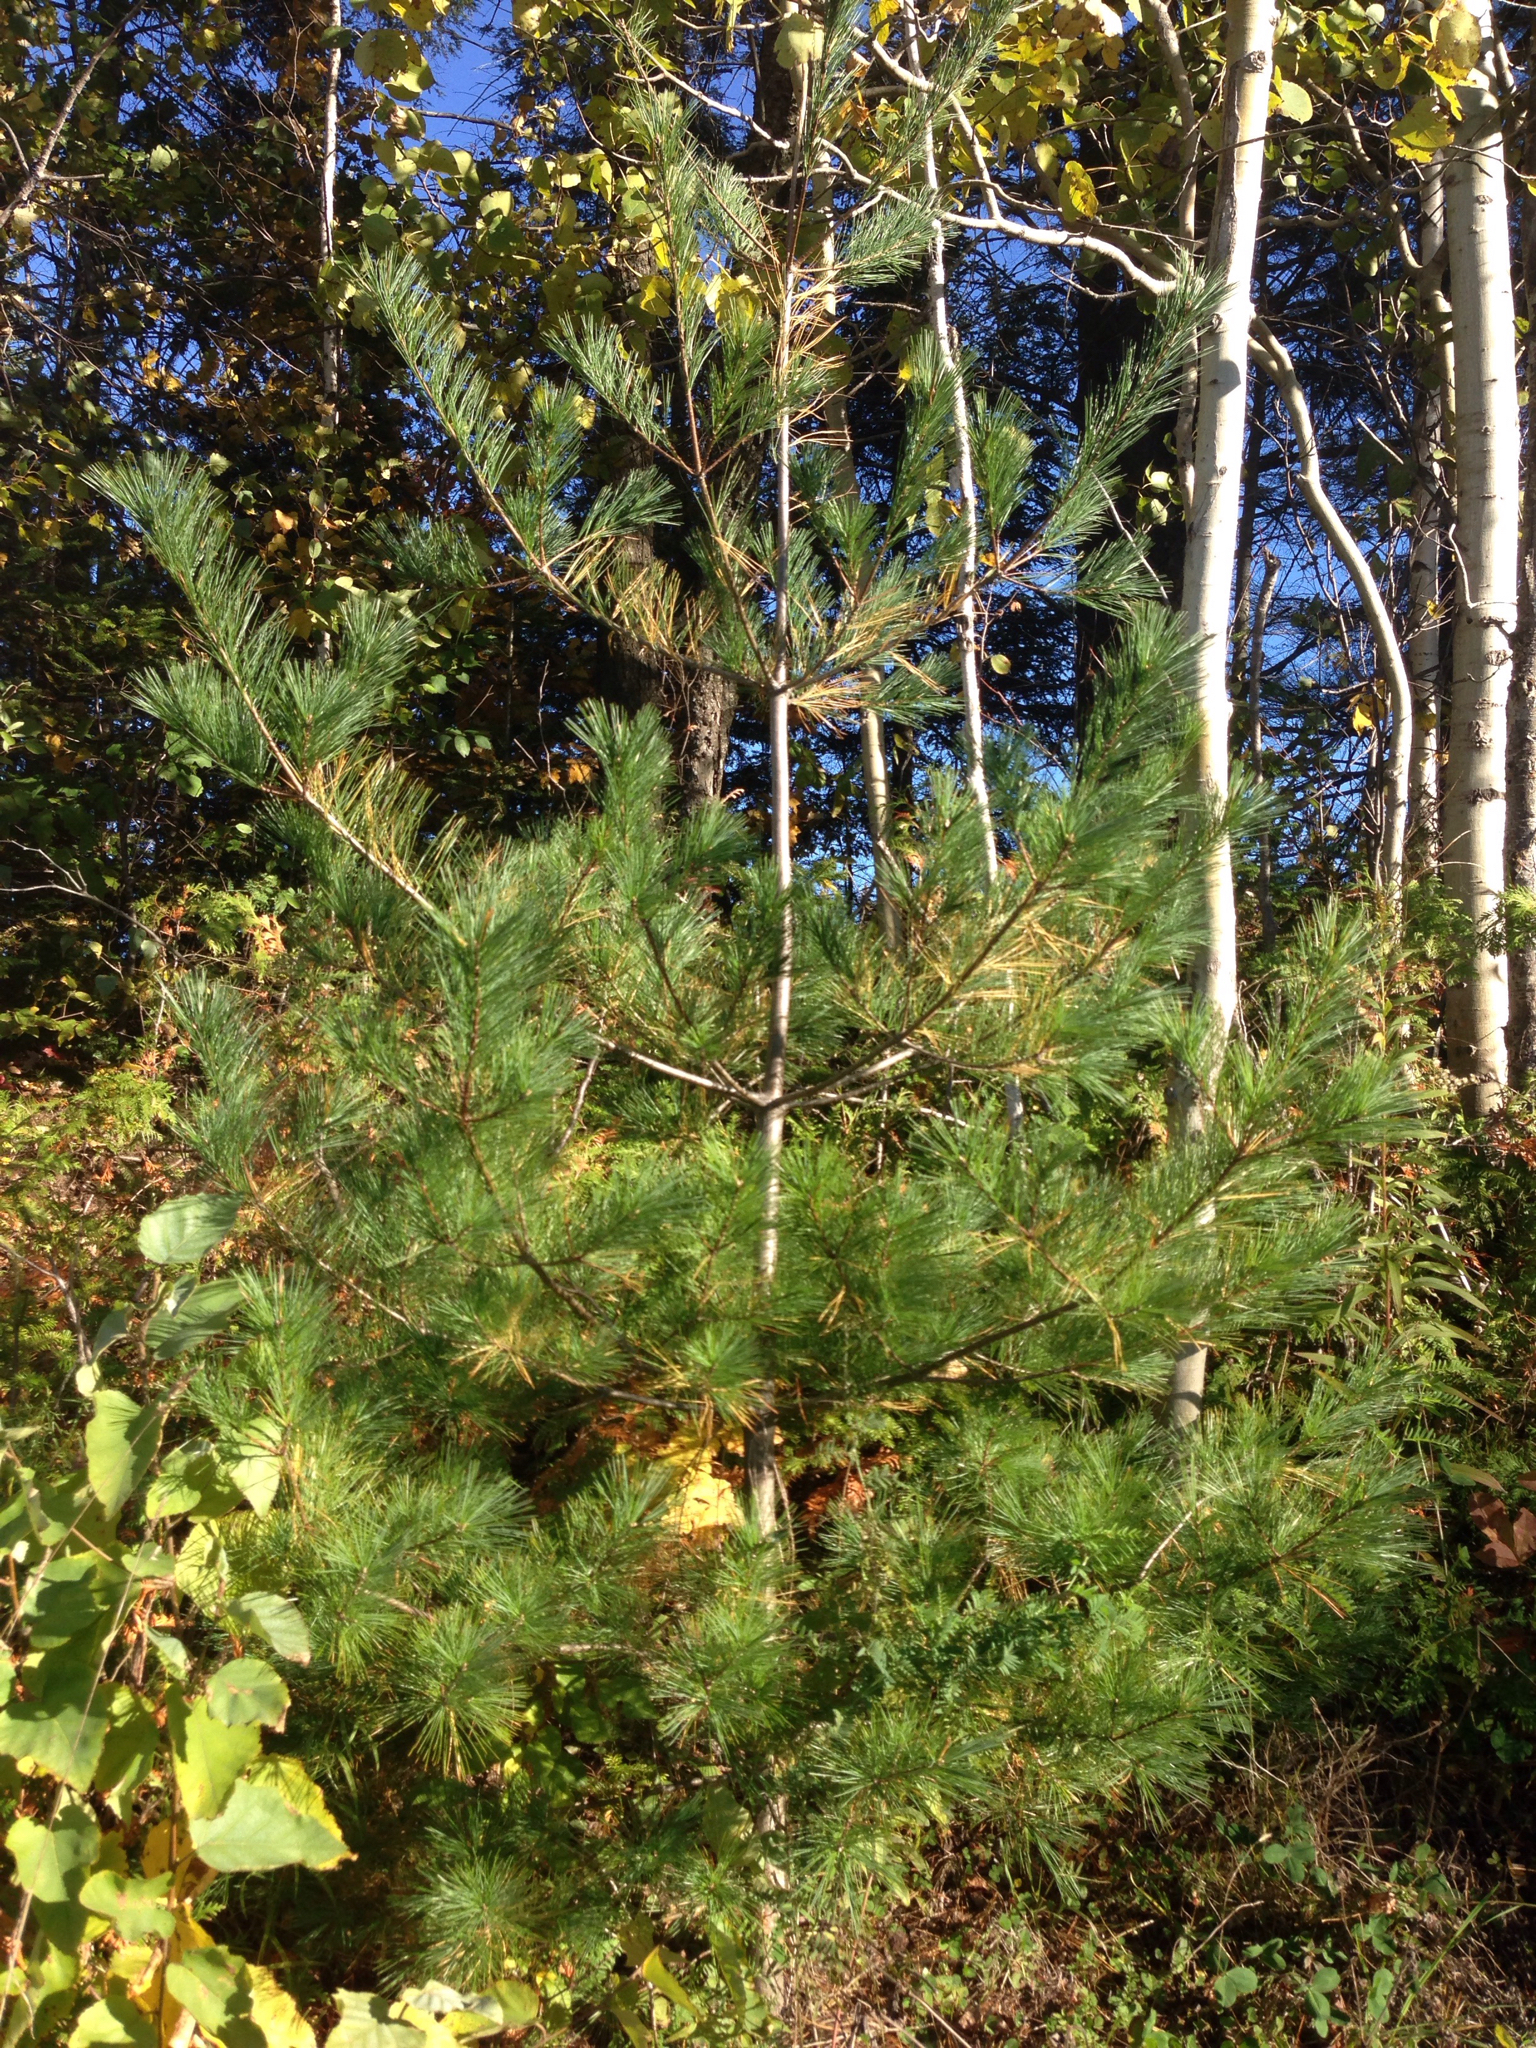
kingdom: Plantae
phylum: Tracheophyta
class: Pinopsida
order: Pinales
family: Pinaceae
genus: Pinus
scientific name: Pinus strobus
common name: Weymouth pine
